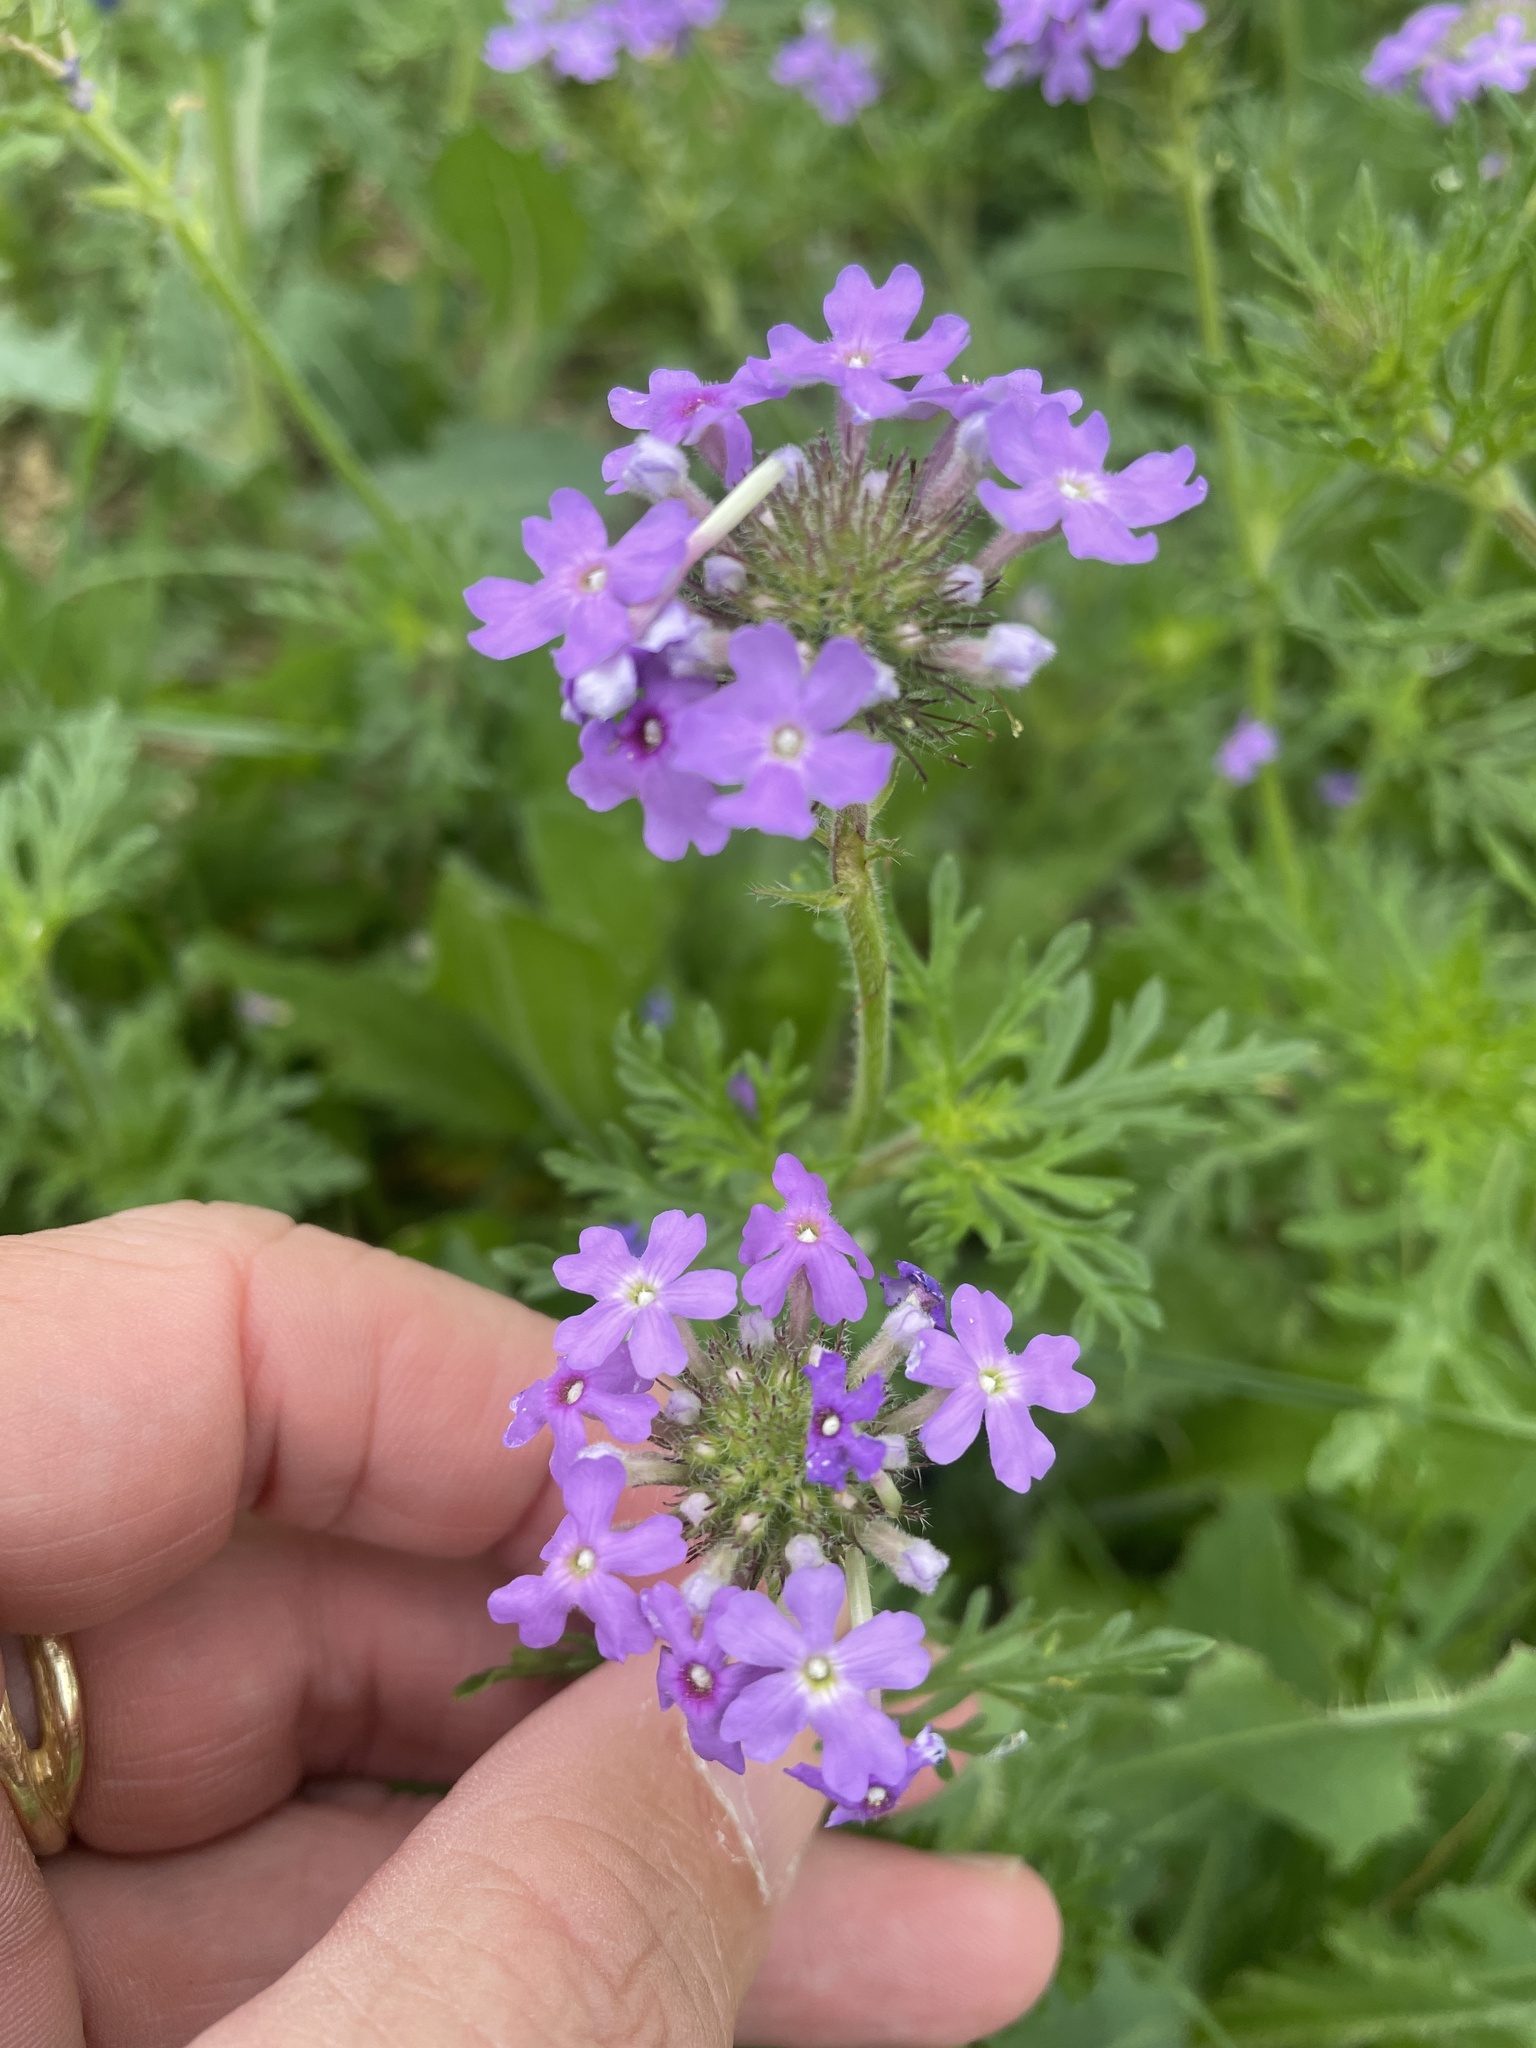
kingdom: Plantae
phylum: Tracheophyta
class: Magnoliopsida
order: Lamiales
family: Verbenaceae
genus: Verbena
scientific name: Verbena bipinnatifida
